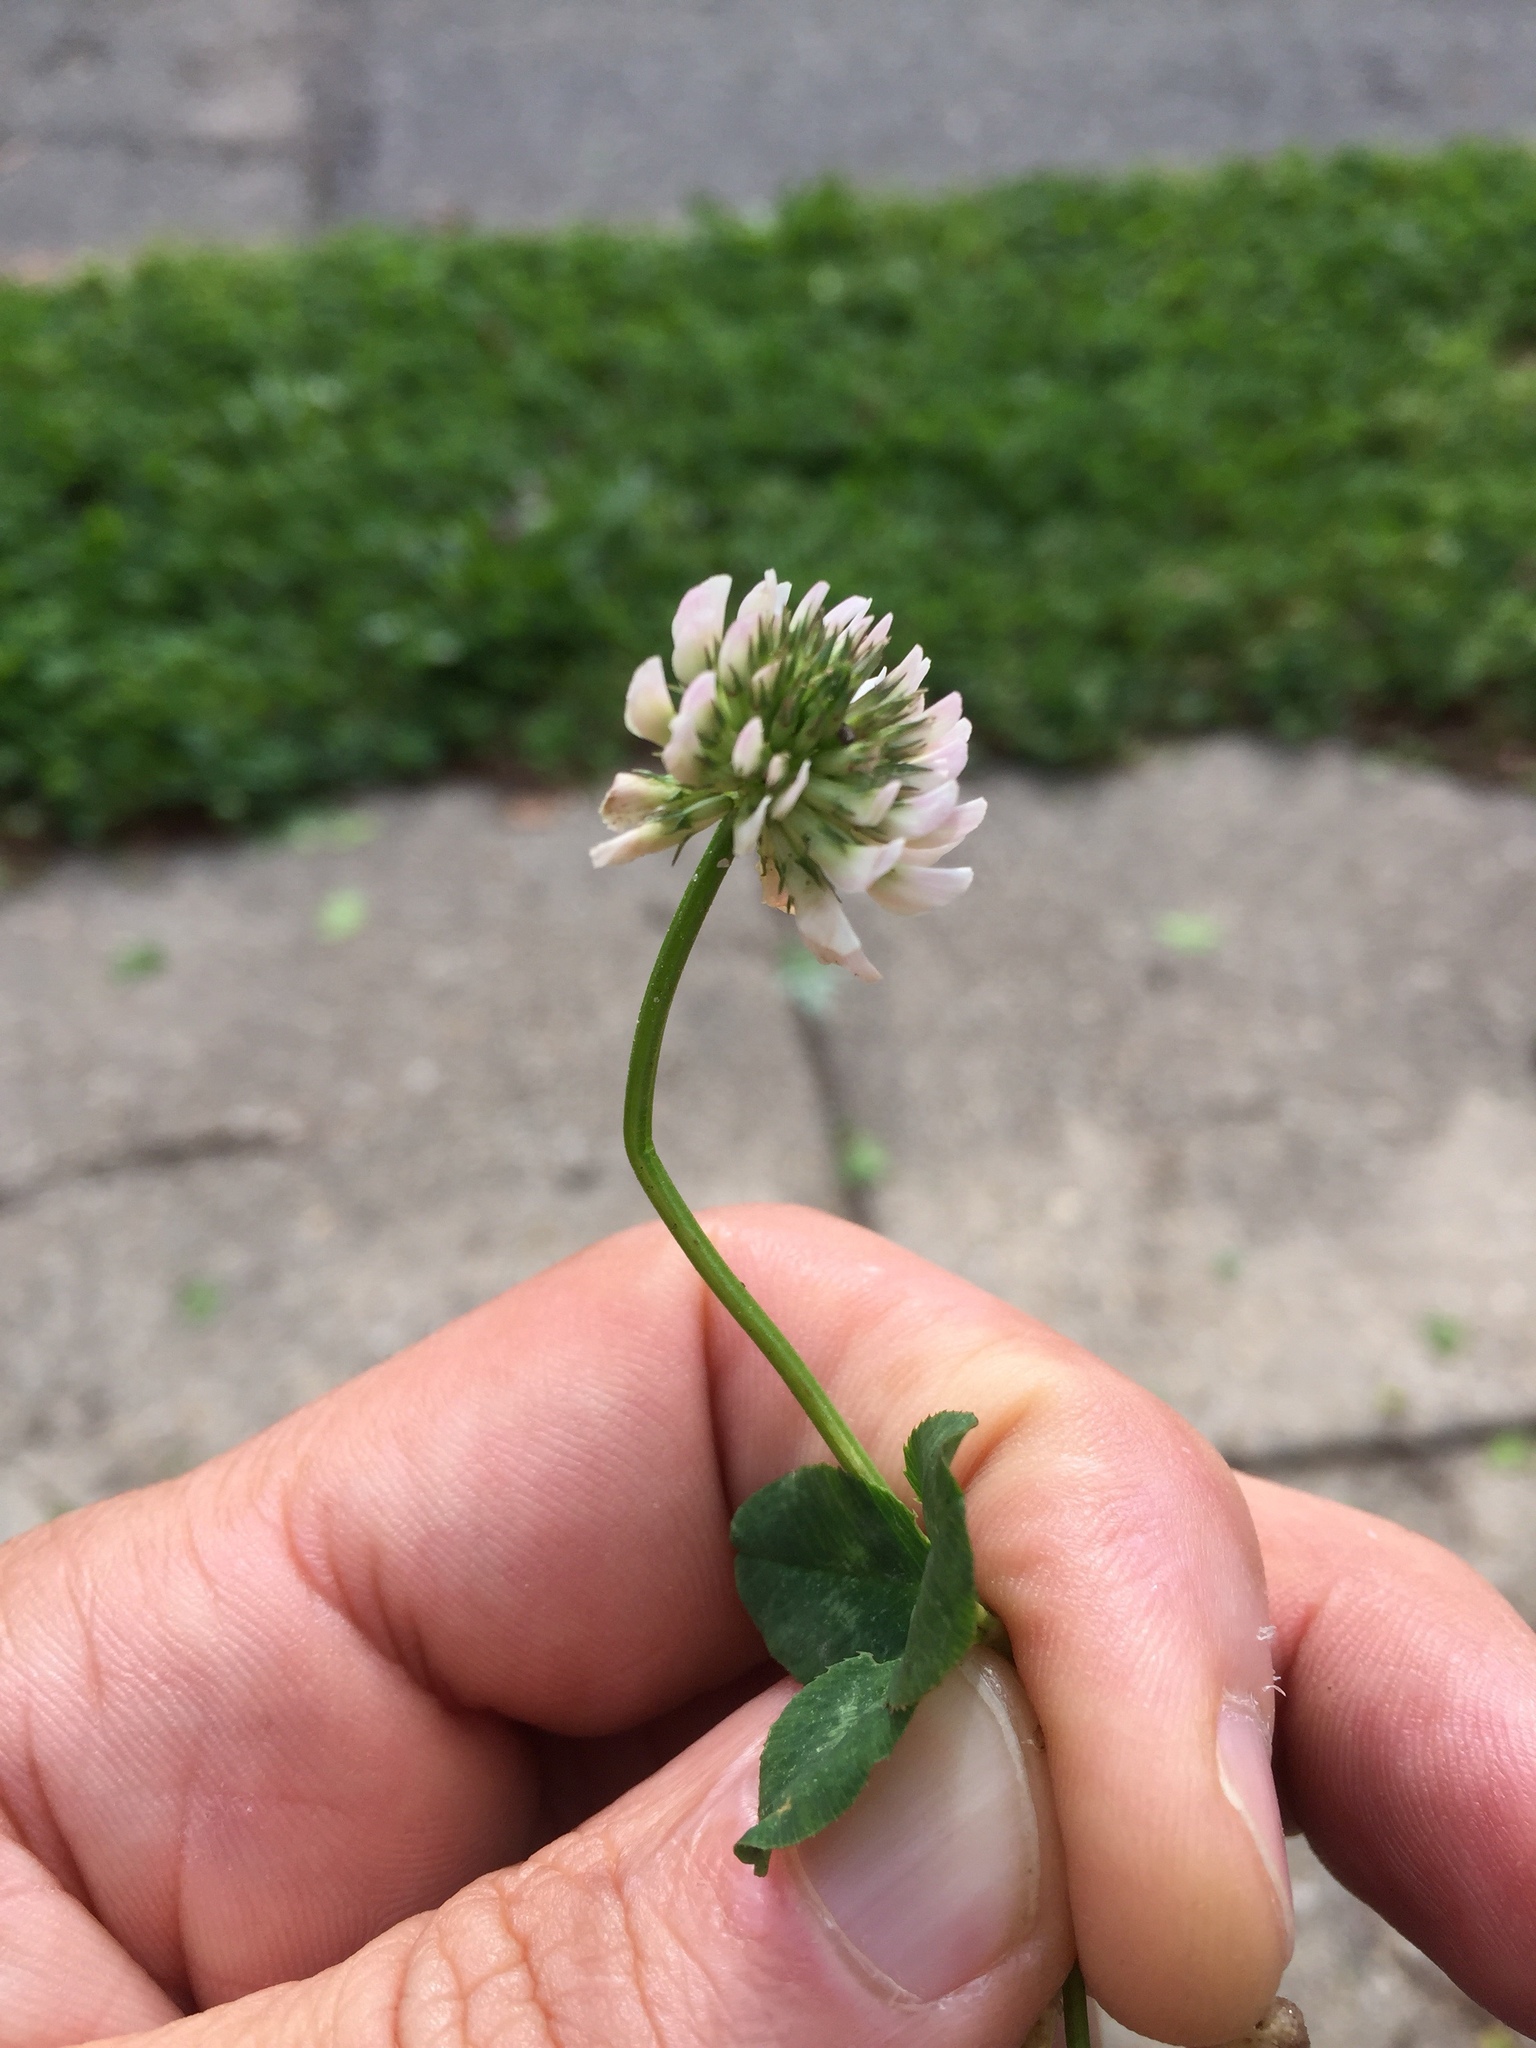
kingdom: Plantae
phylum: Tracheophyta
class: Magnoliopsida
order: Fabales
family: Fabaceae
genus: Trifolium
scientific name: Trifolium repens
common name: White clover
